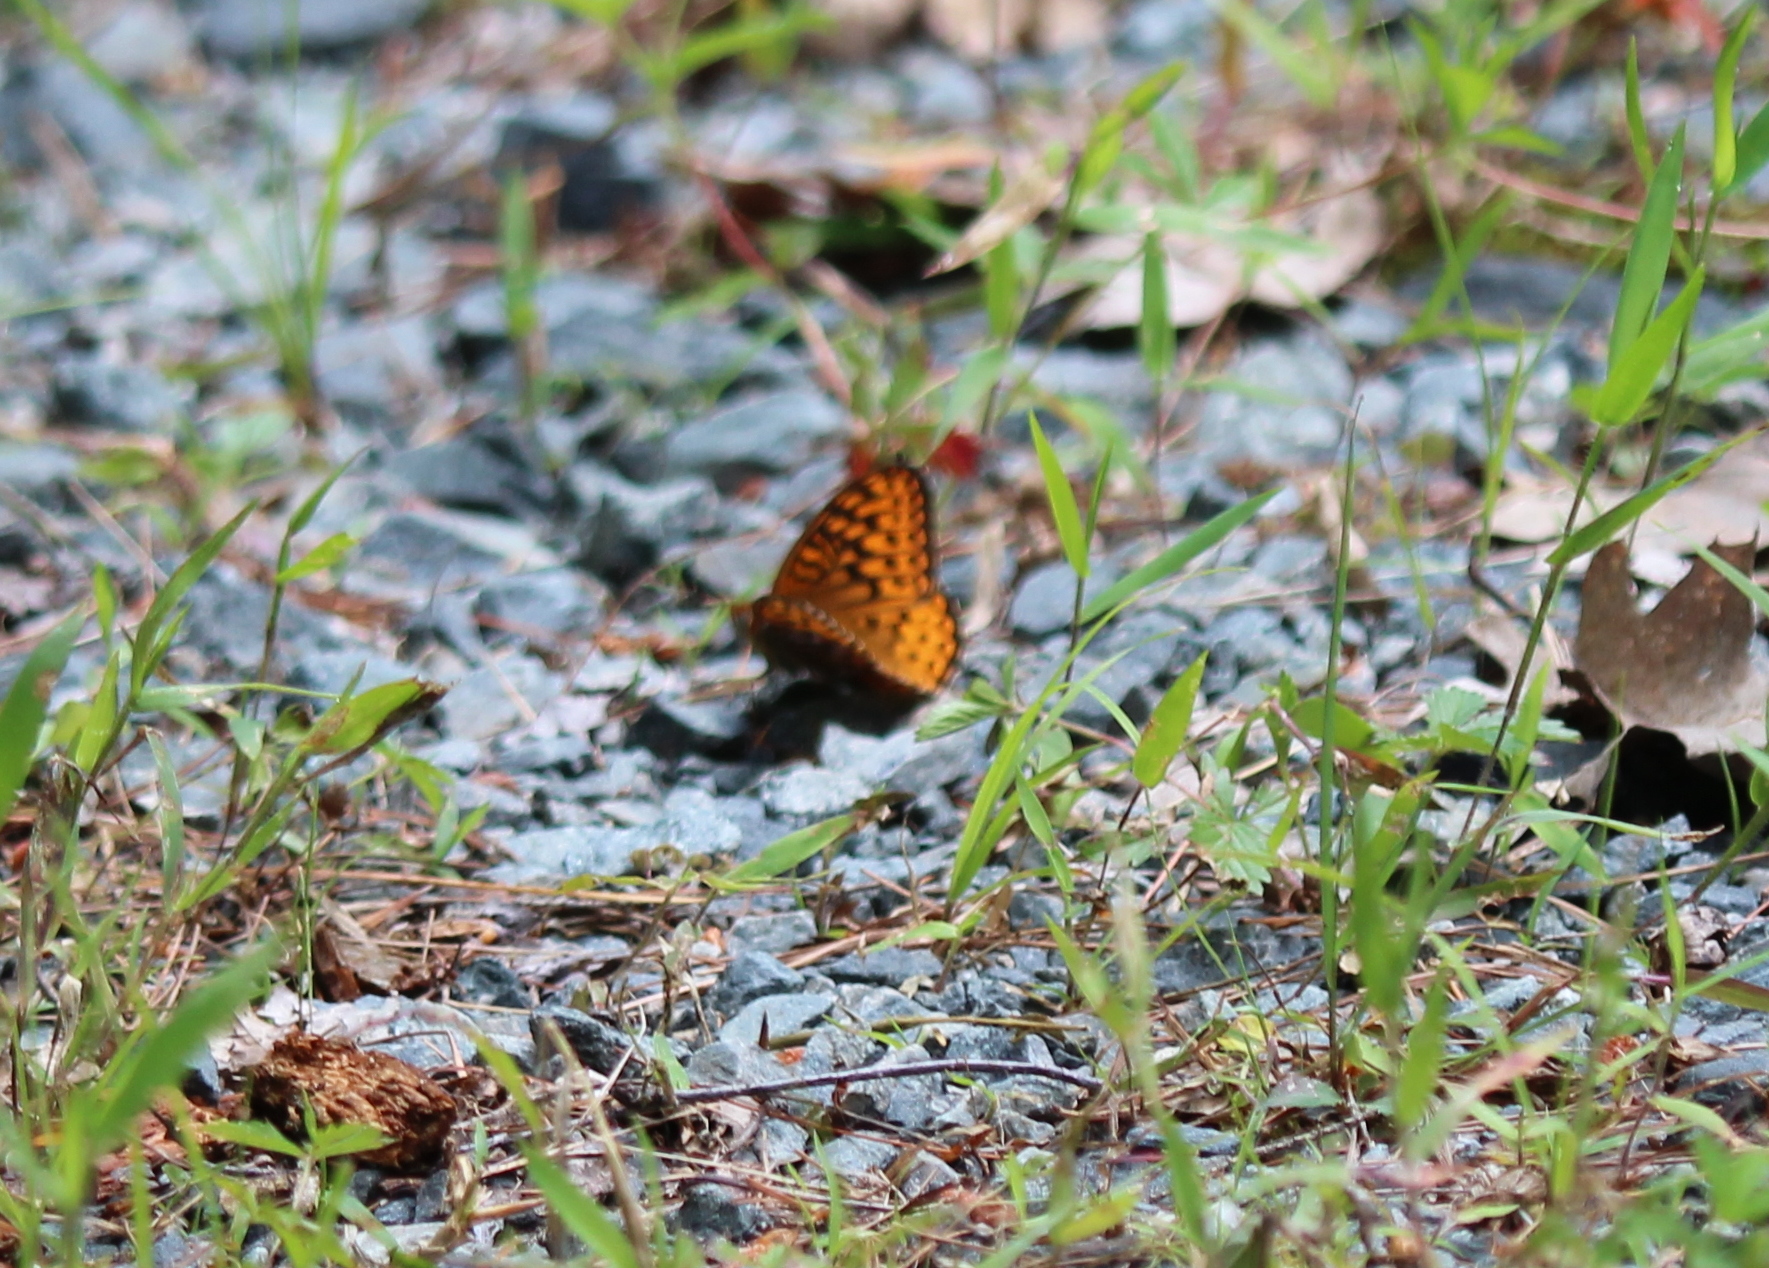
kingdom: Animalia
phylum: Arthropoda
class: Insecta
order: Lepidoptera
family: Nymphalidae
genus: Speyeria
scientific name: Speyeria atlantis
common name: Atlantis fritillary
